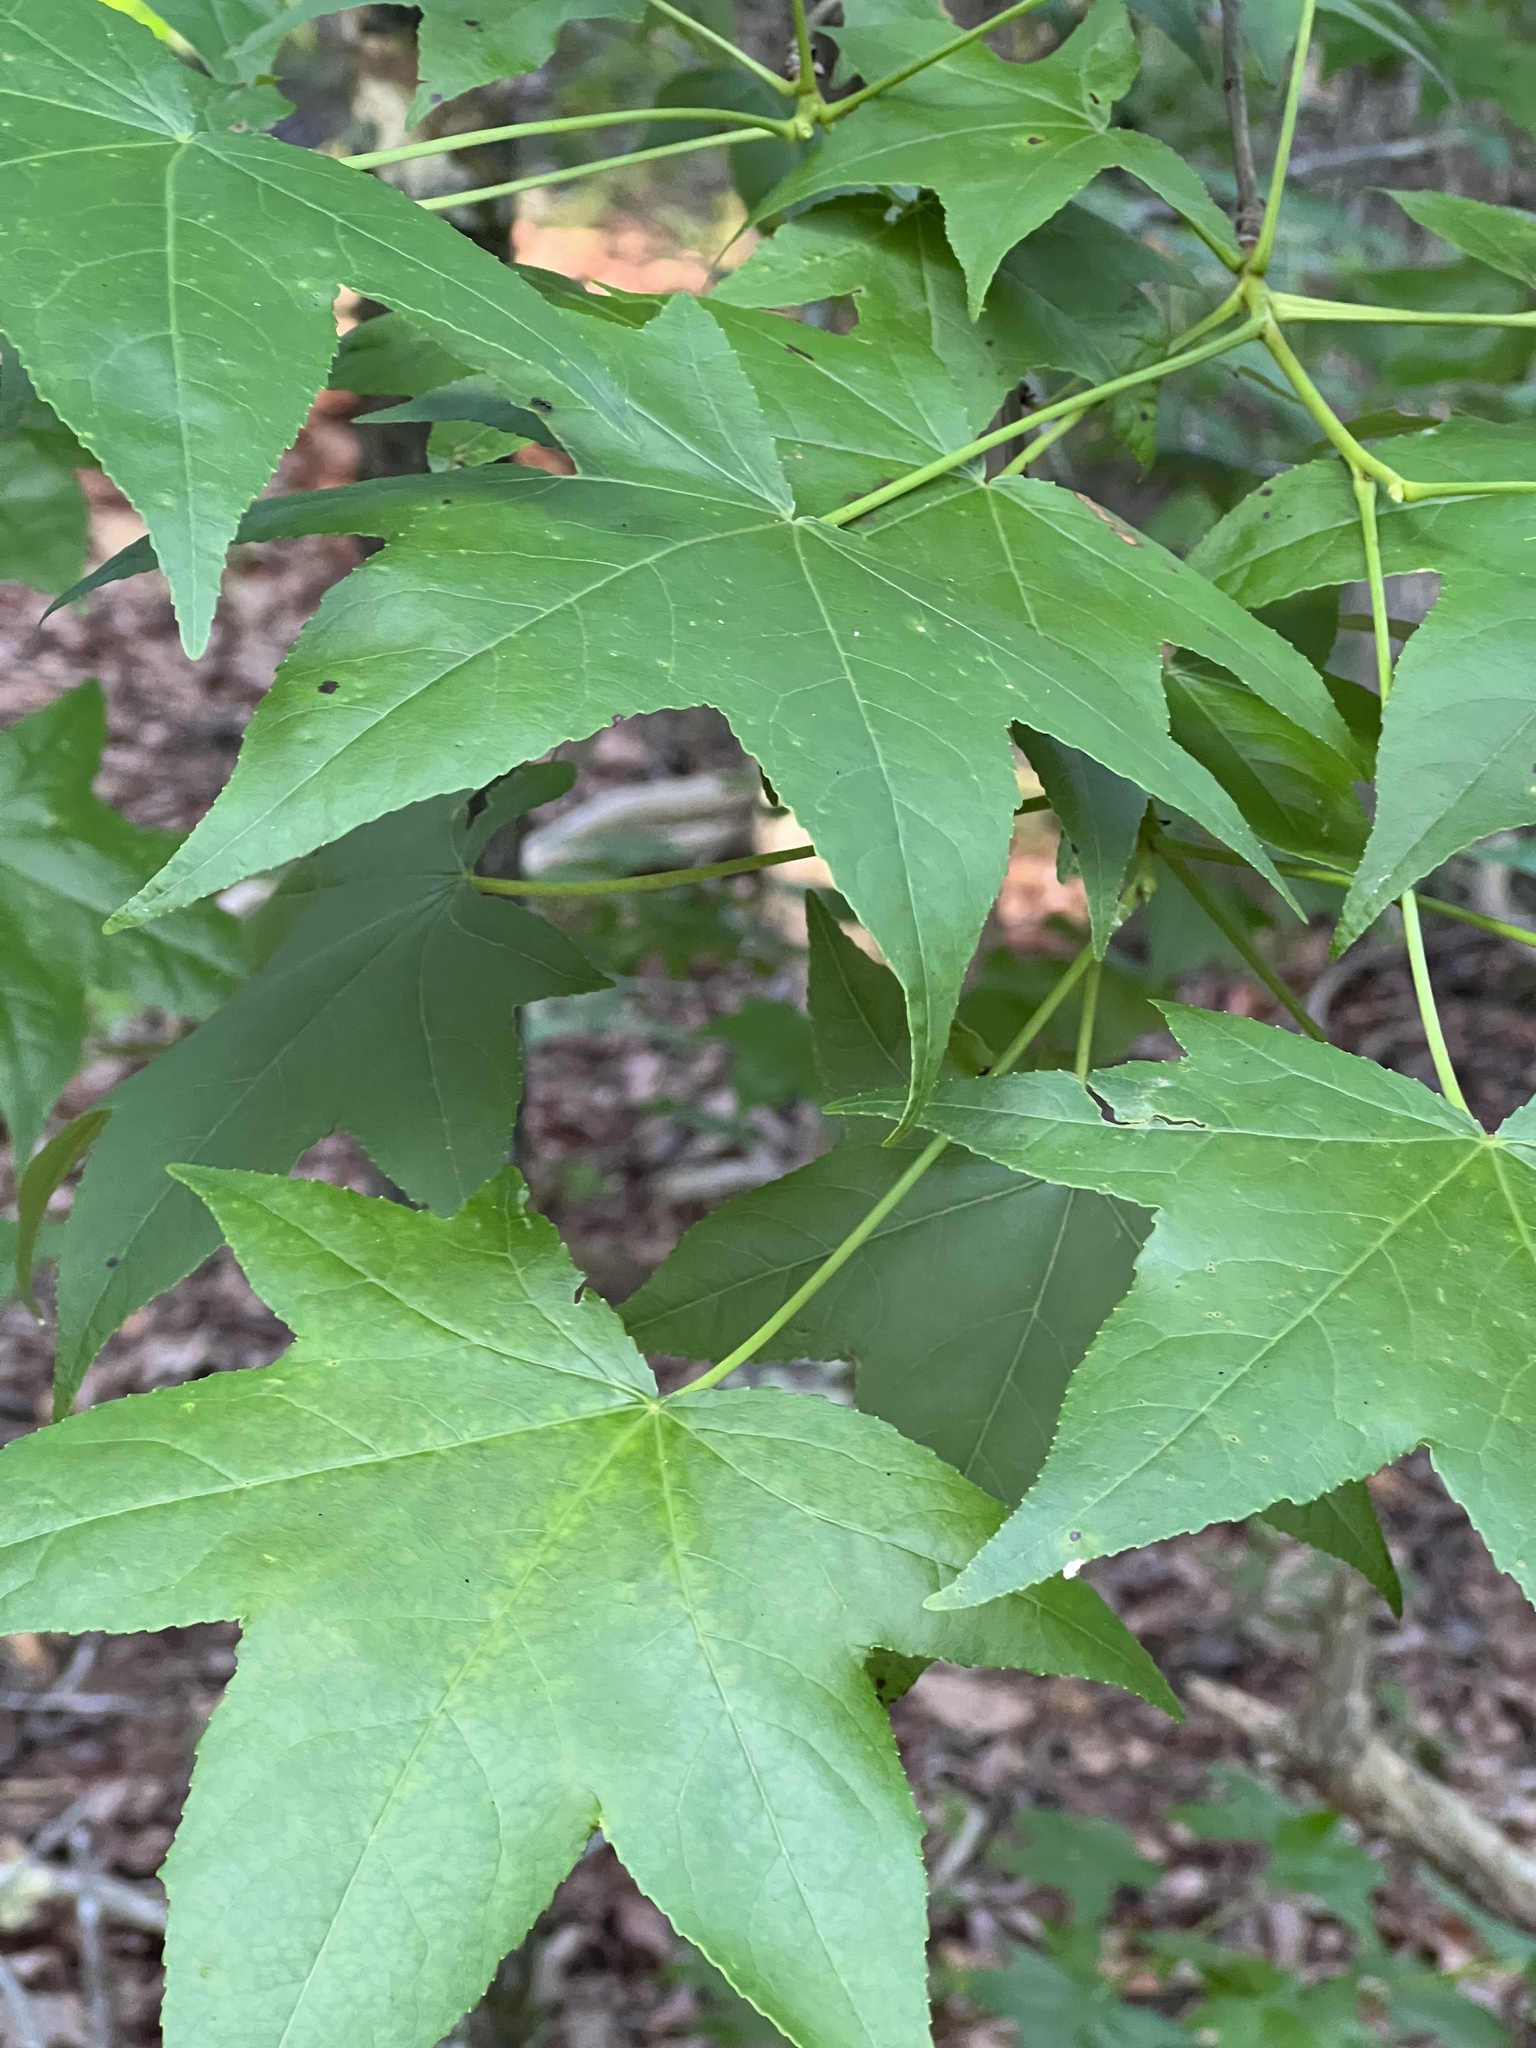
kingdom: Plantae
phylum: Tracheophyta
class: Magnoliopsida
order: Saxifragales
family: Altingiaceae
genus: Liquidambar
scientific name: Liquidambar styraciflua
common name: Sweet gum
